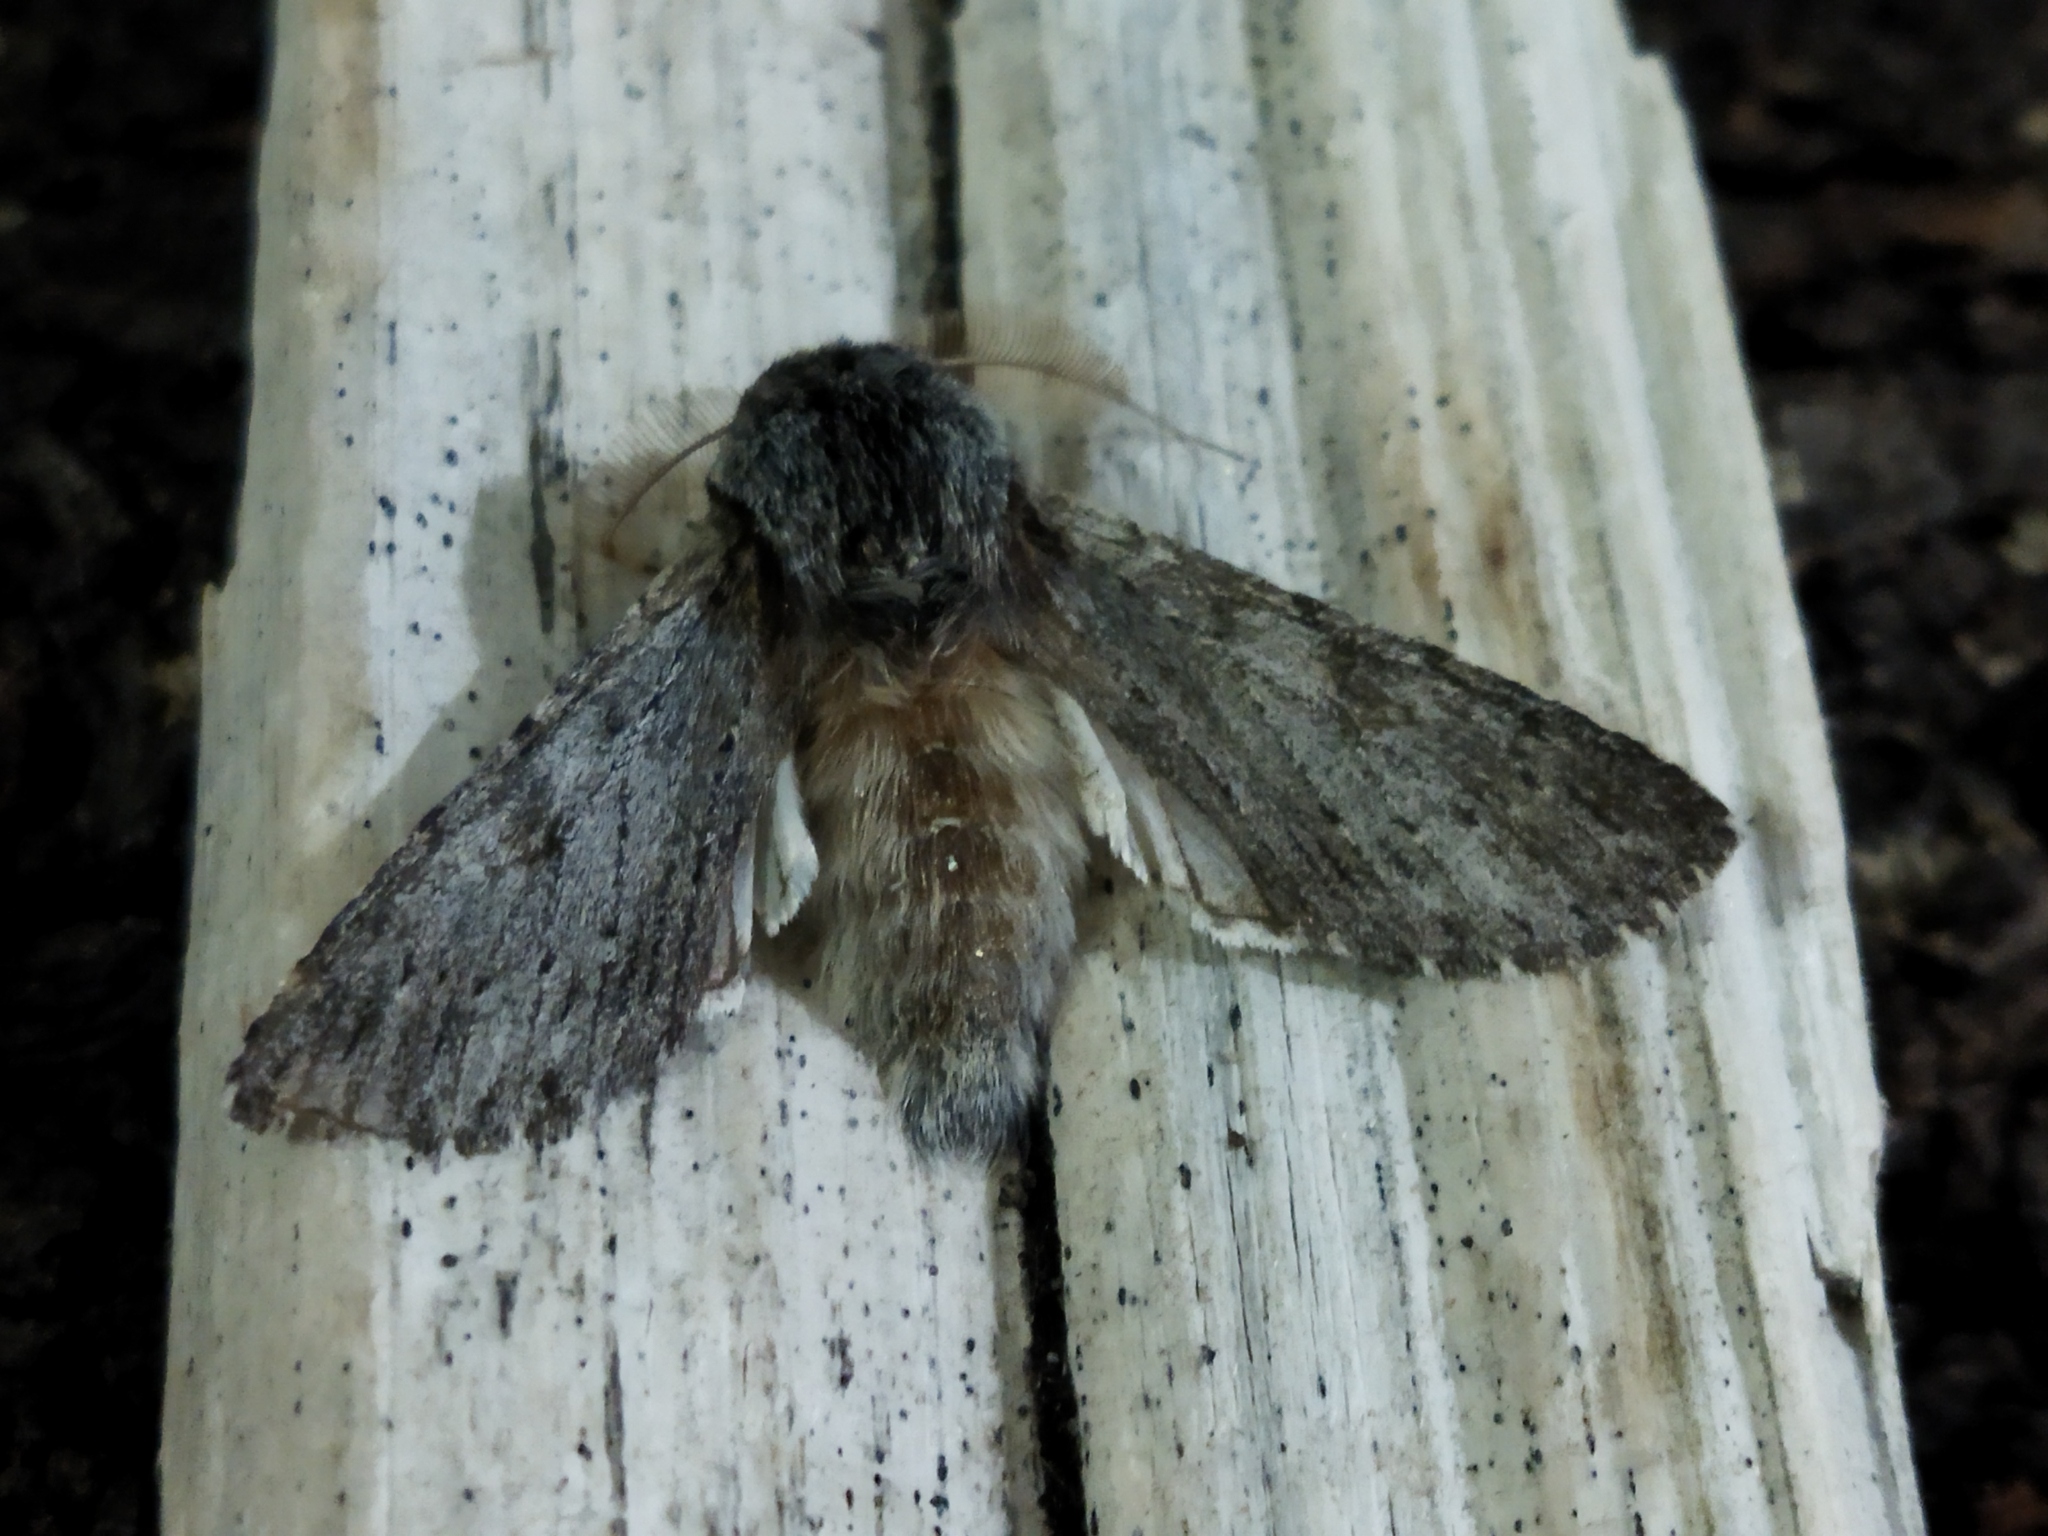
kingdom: Animalia
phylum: Arthropoda
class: Insecta
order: Lepidoptera
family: Notodontidae
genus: Dicranura
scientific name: Dicranura ulmi
